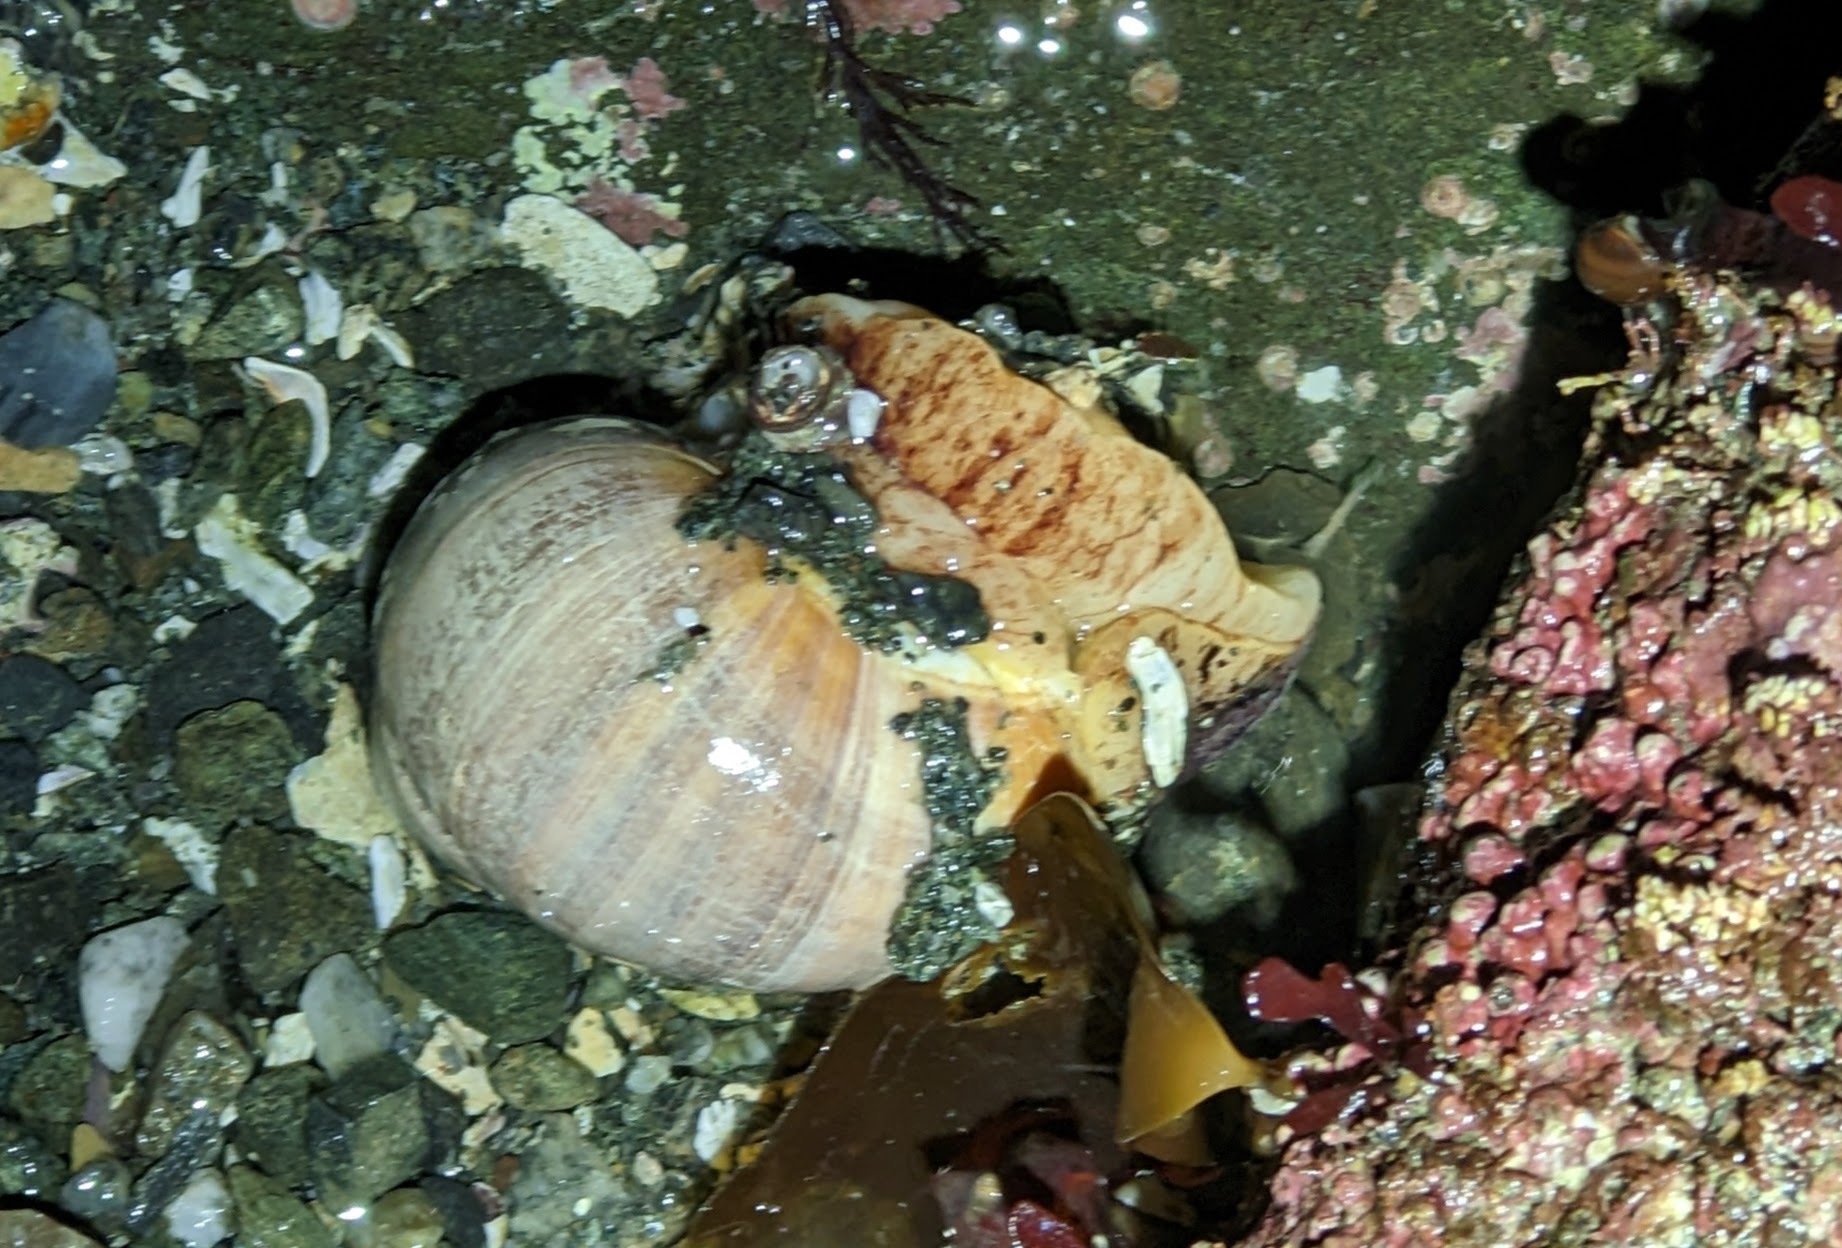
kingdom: Animalia
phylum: Mollusca
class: Gastropoda
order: Littorinimorpha
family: Naticidae
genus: Cryptonatica
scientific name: Cryptonatica aleutica
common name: Aleutian moon snail
